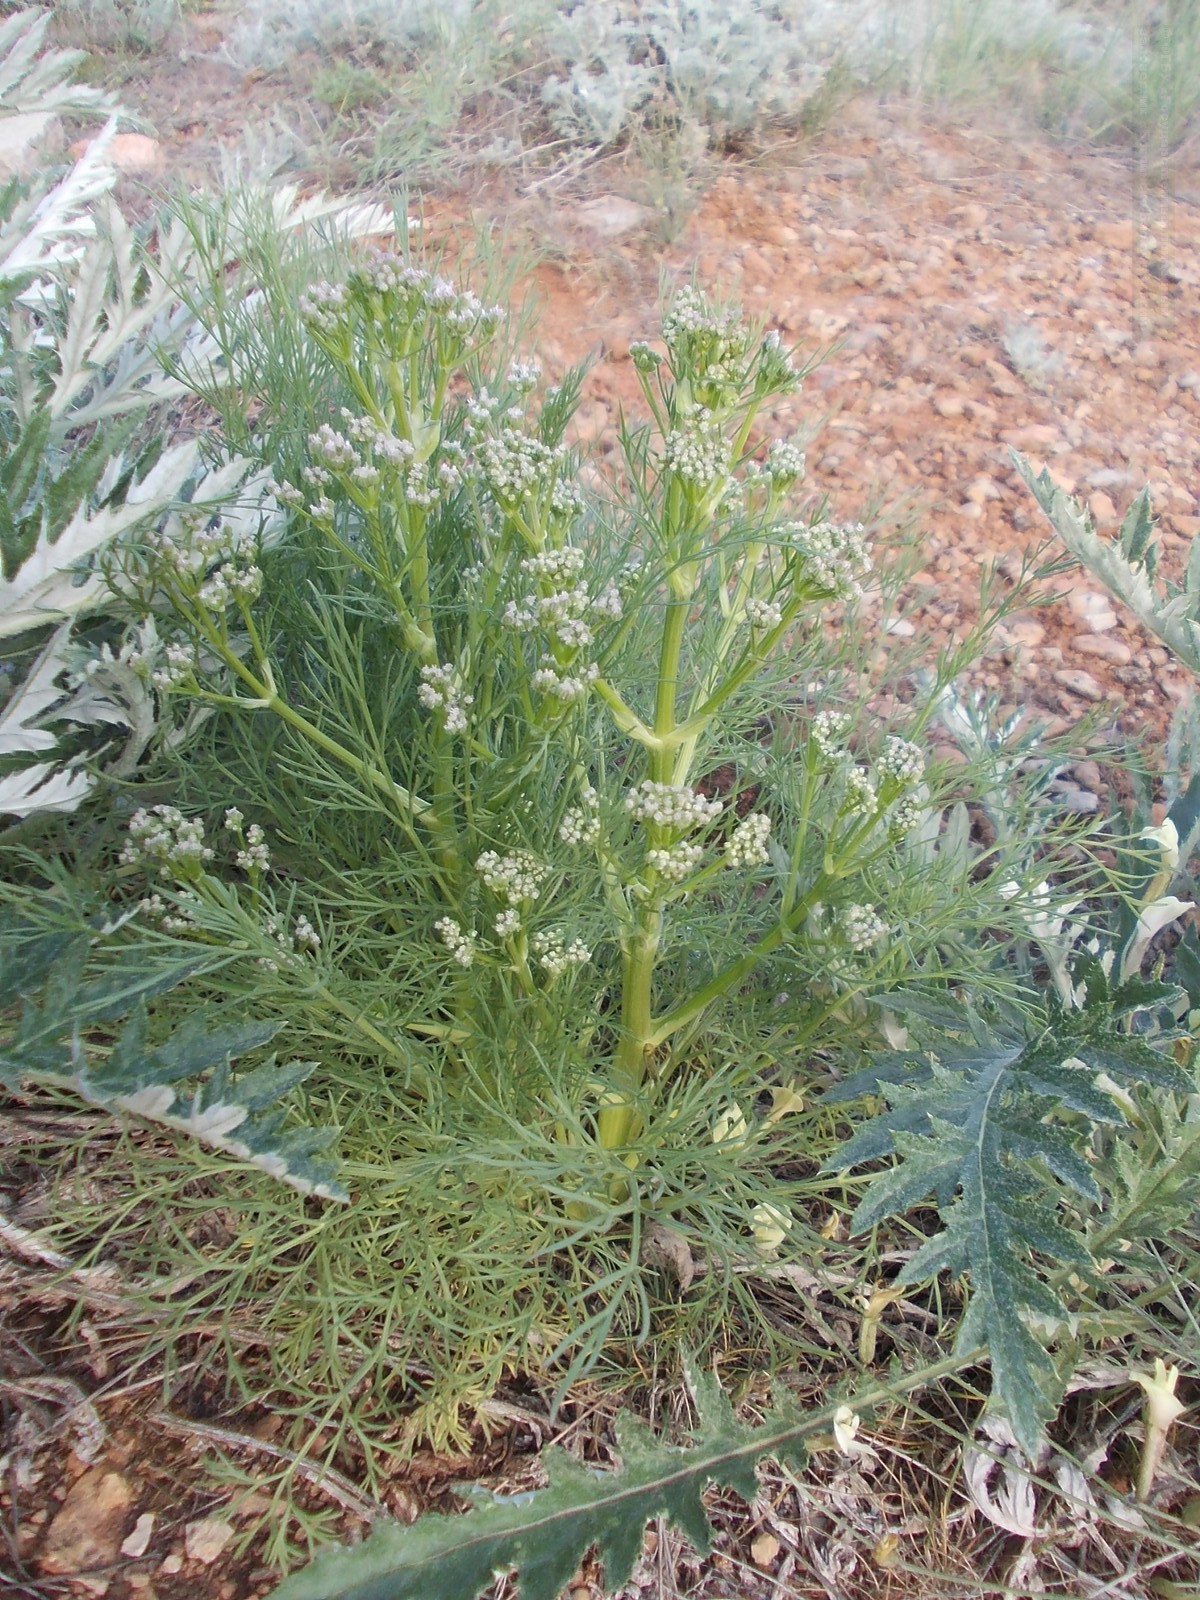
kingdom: Plantae
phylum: Tracheophyta
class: Magnoliopsida
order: Apiales
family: Apiaceae
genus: Trinia
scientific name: Trinia hispida
